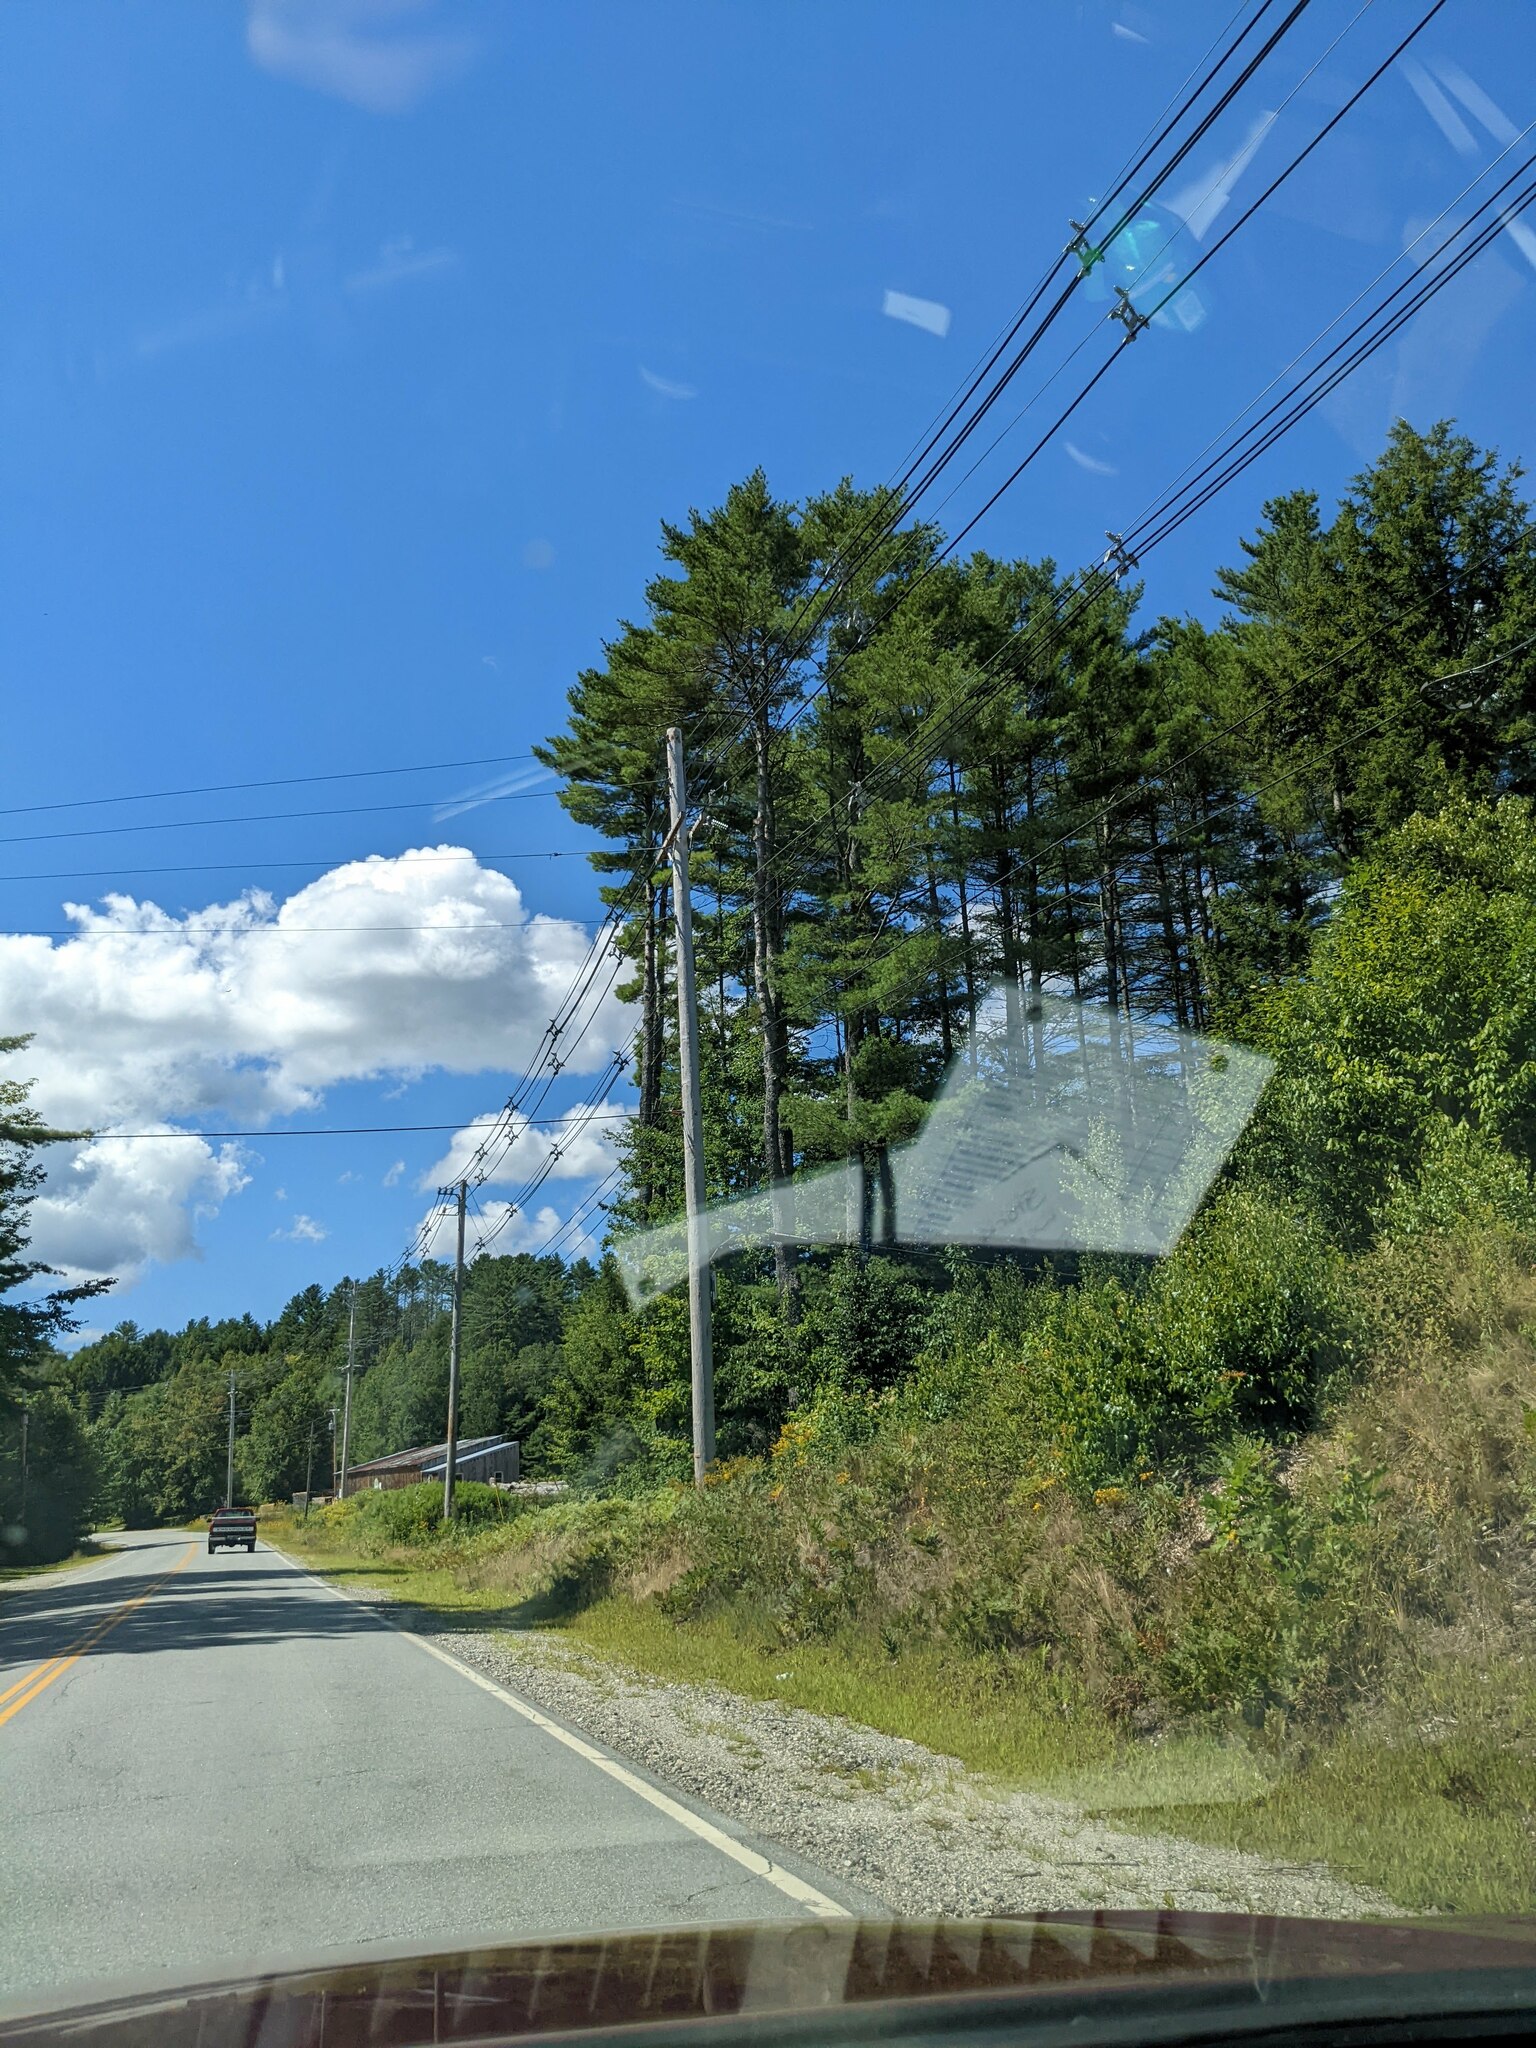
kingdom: Plantae
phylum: Tracheophyta
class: Pinopsida
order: Pinales
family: Pinaceae
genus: Pinus
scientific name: Pinus strobus
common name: Weymouth pine
